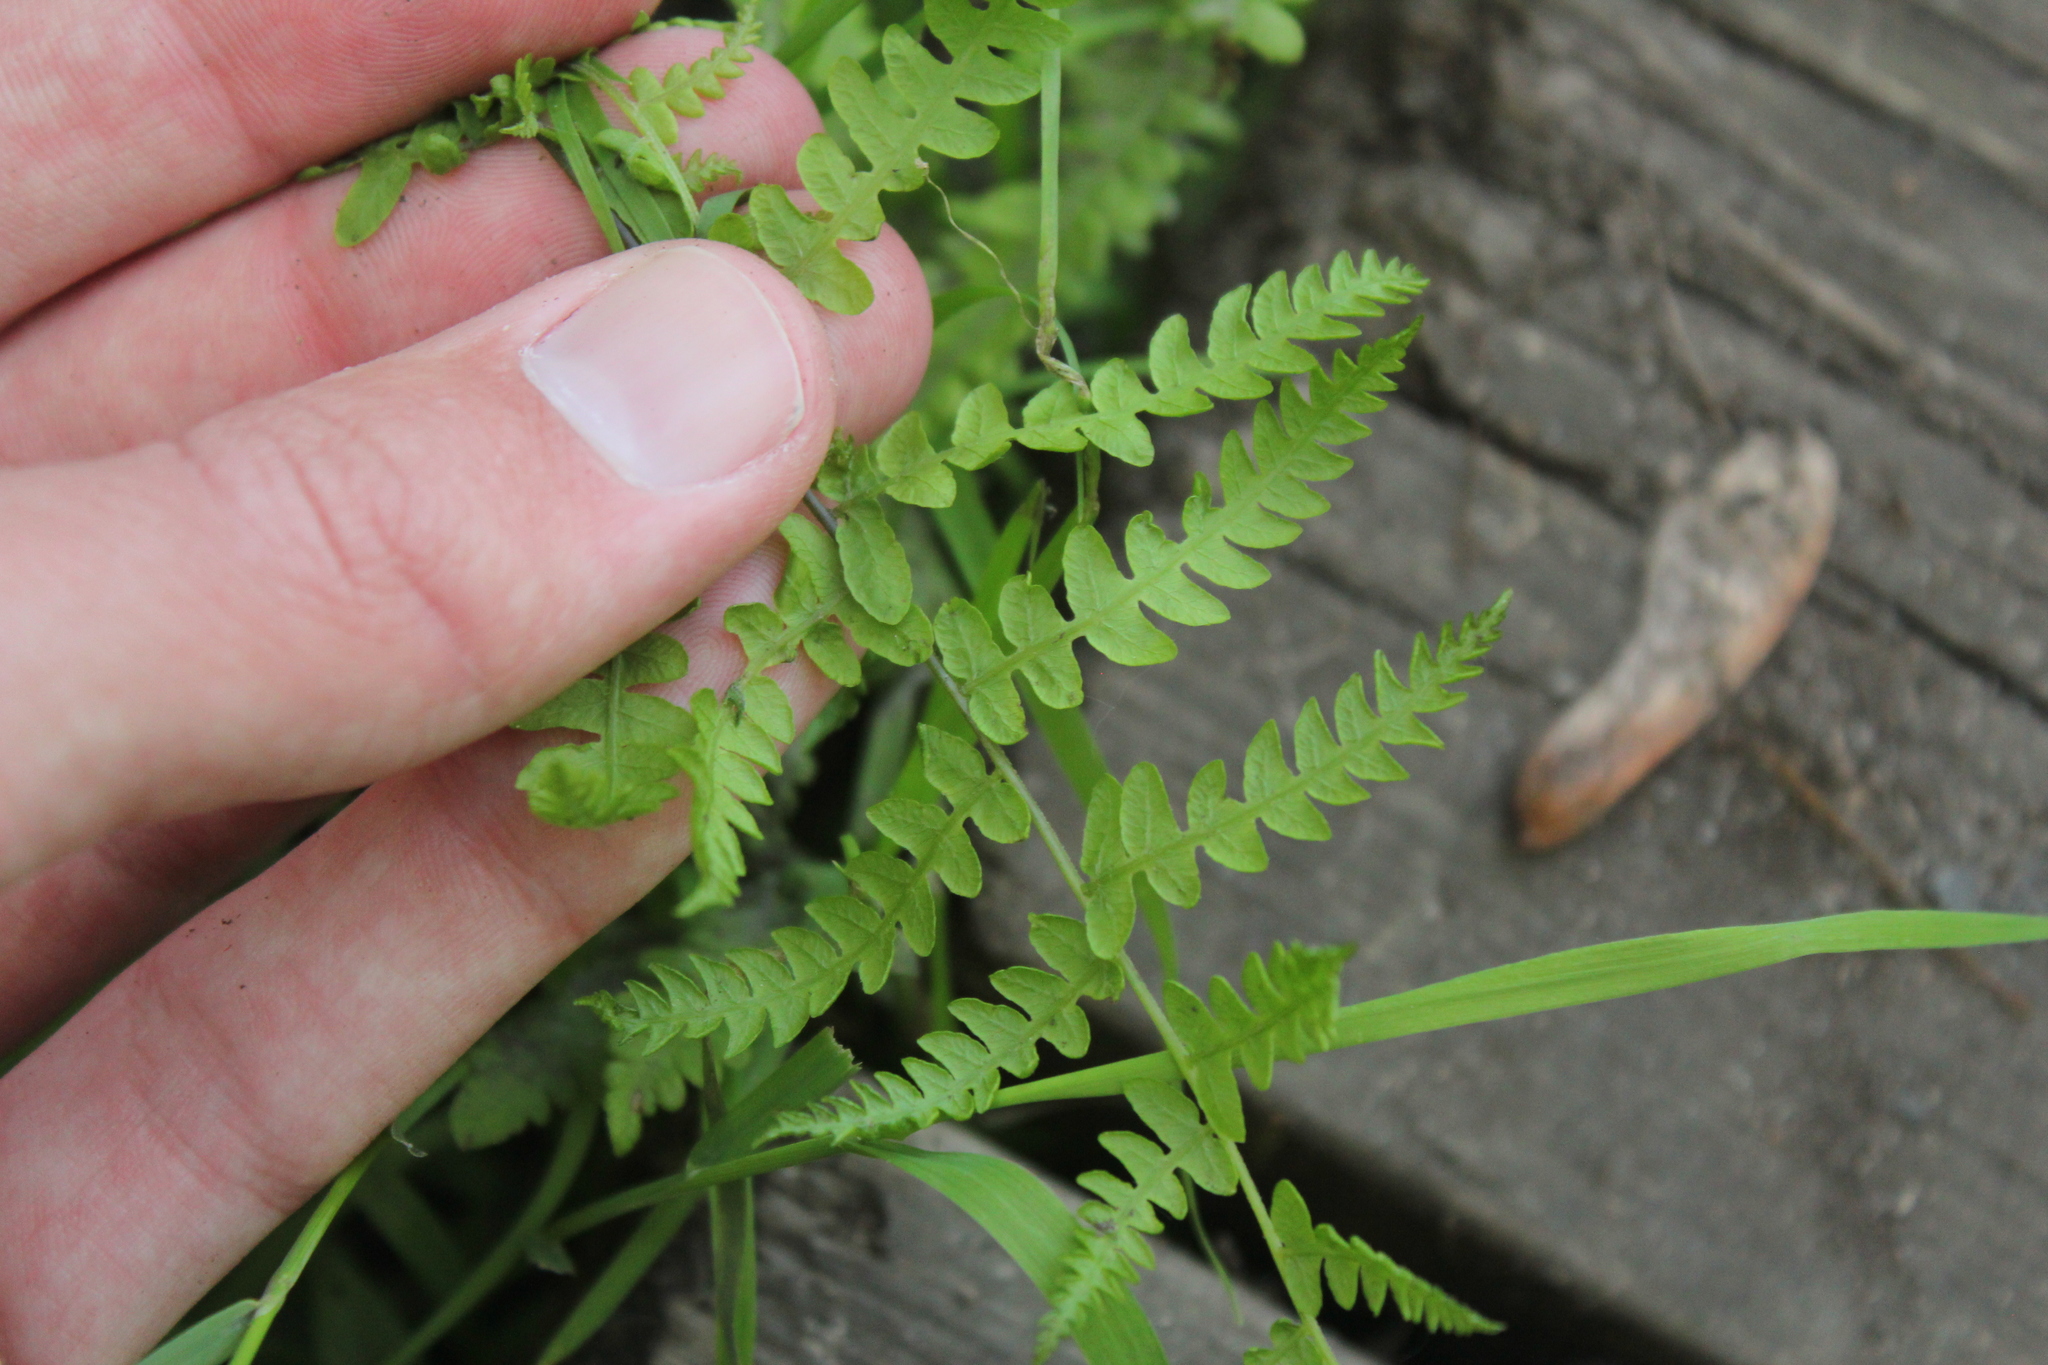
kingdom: Plantae
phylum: Tracheophyta
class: Polypodiopsida
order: Polypodiales
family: Thelypteridaceae
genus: Thelypteris
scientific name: Thelypteris palustris
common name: Marsh fern
